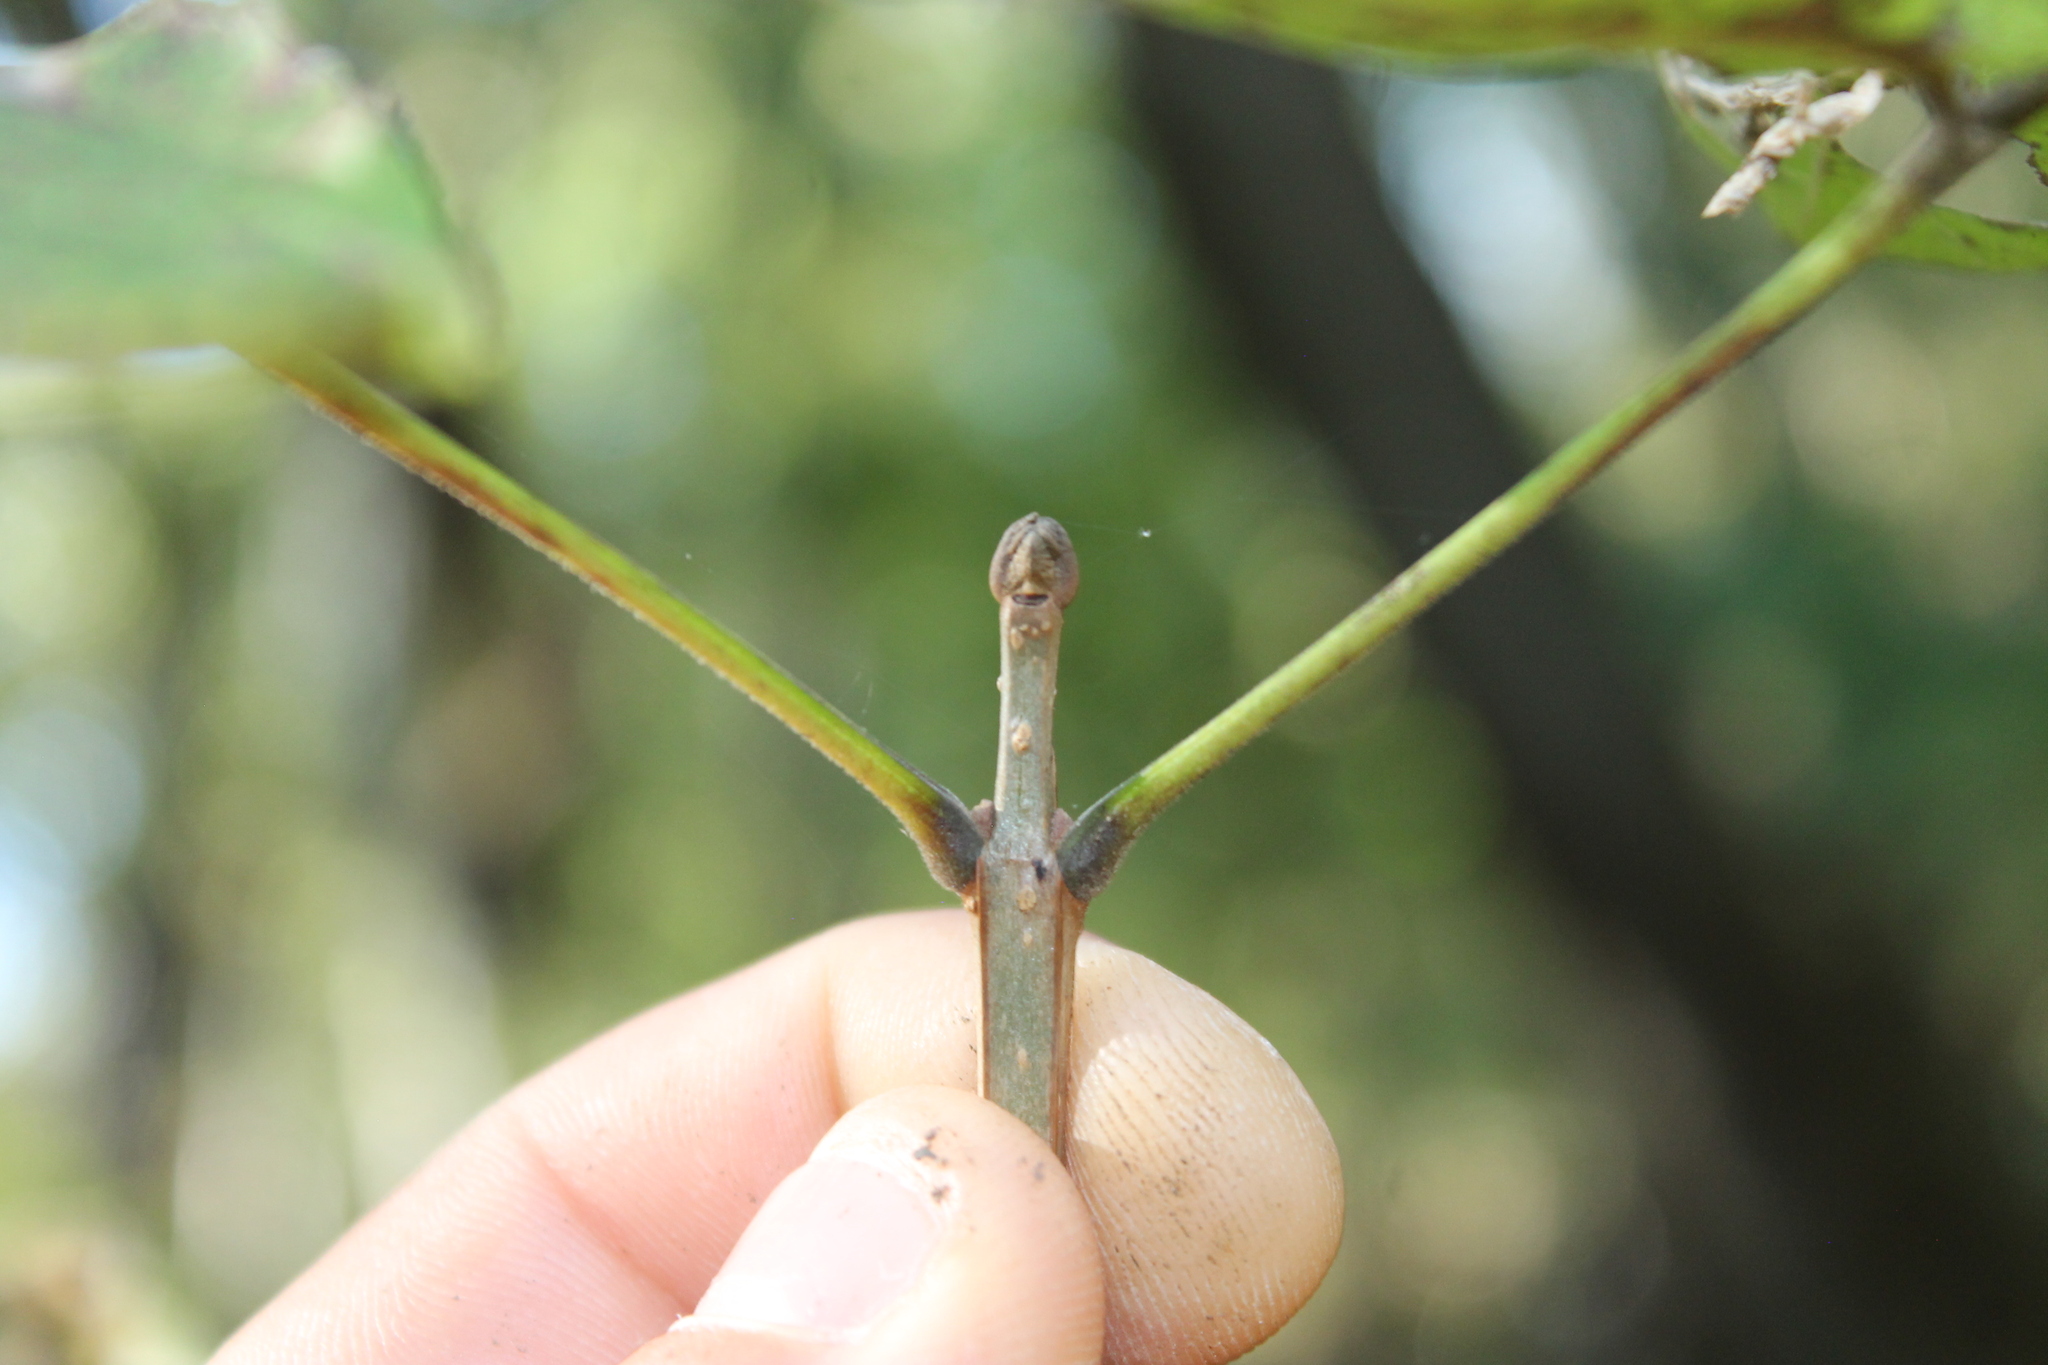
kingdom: Plantae
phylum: Tracheophyta
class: Magnoliopsida
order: Lamiales
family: Oleaceae
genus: Fraxinus
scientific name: Fraxinus quadrangulata
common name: Blue ash
